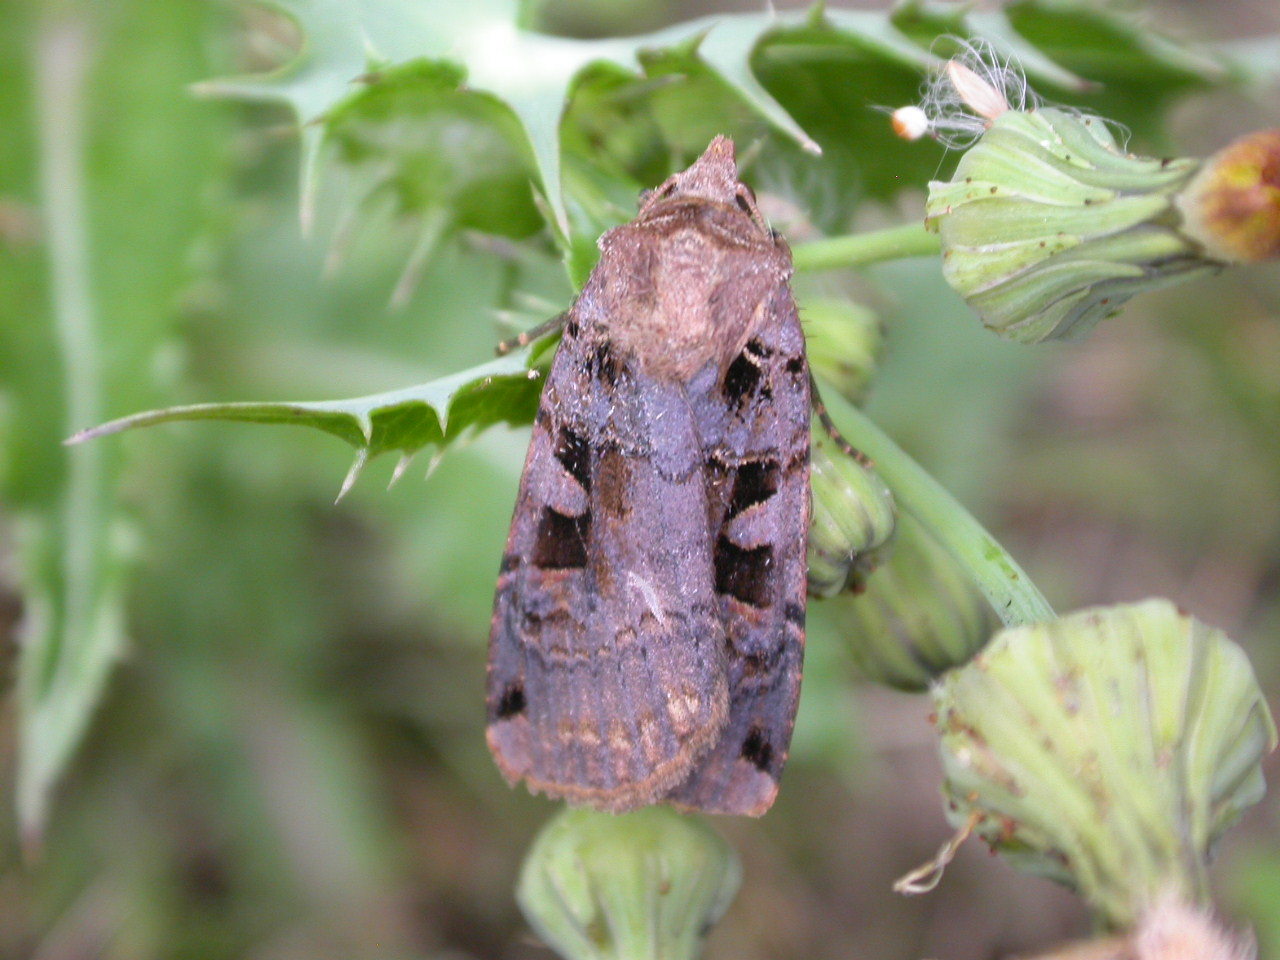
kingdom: Animalia
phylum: Arthropoda
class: Insecta
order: Lepidoptera
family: Noctuidae
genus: Xestia
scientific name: Xestia ditrapezium
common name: Triple-spotted clay
